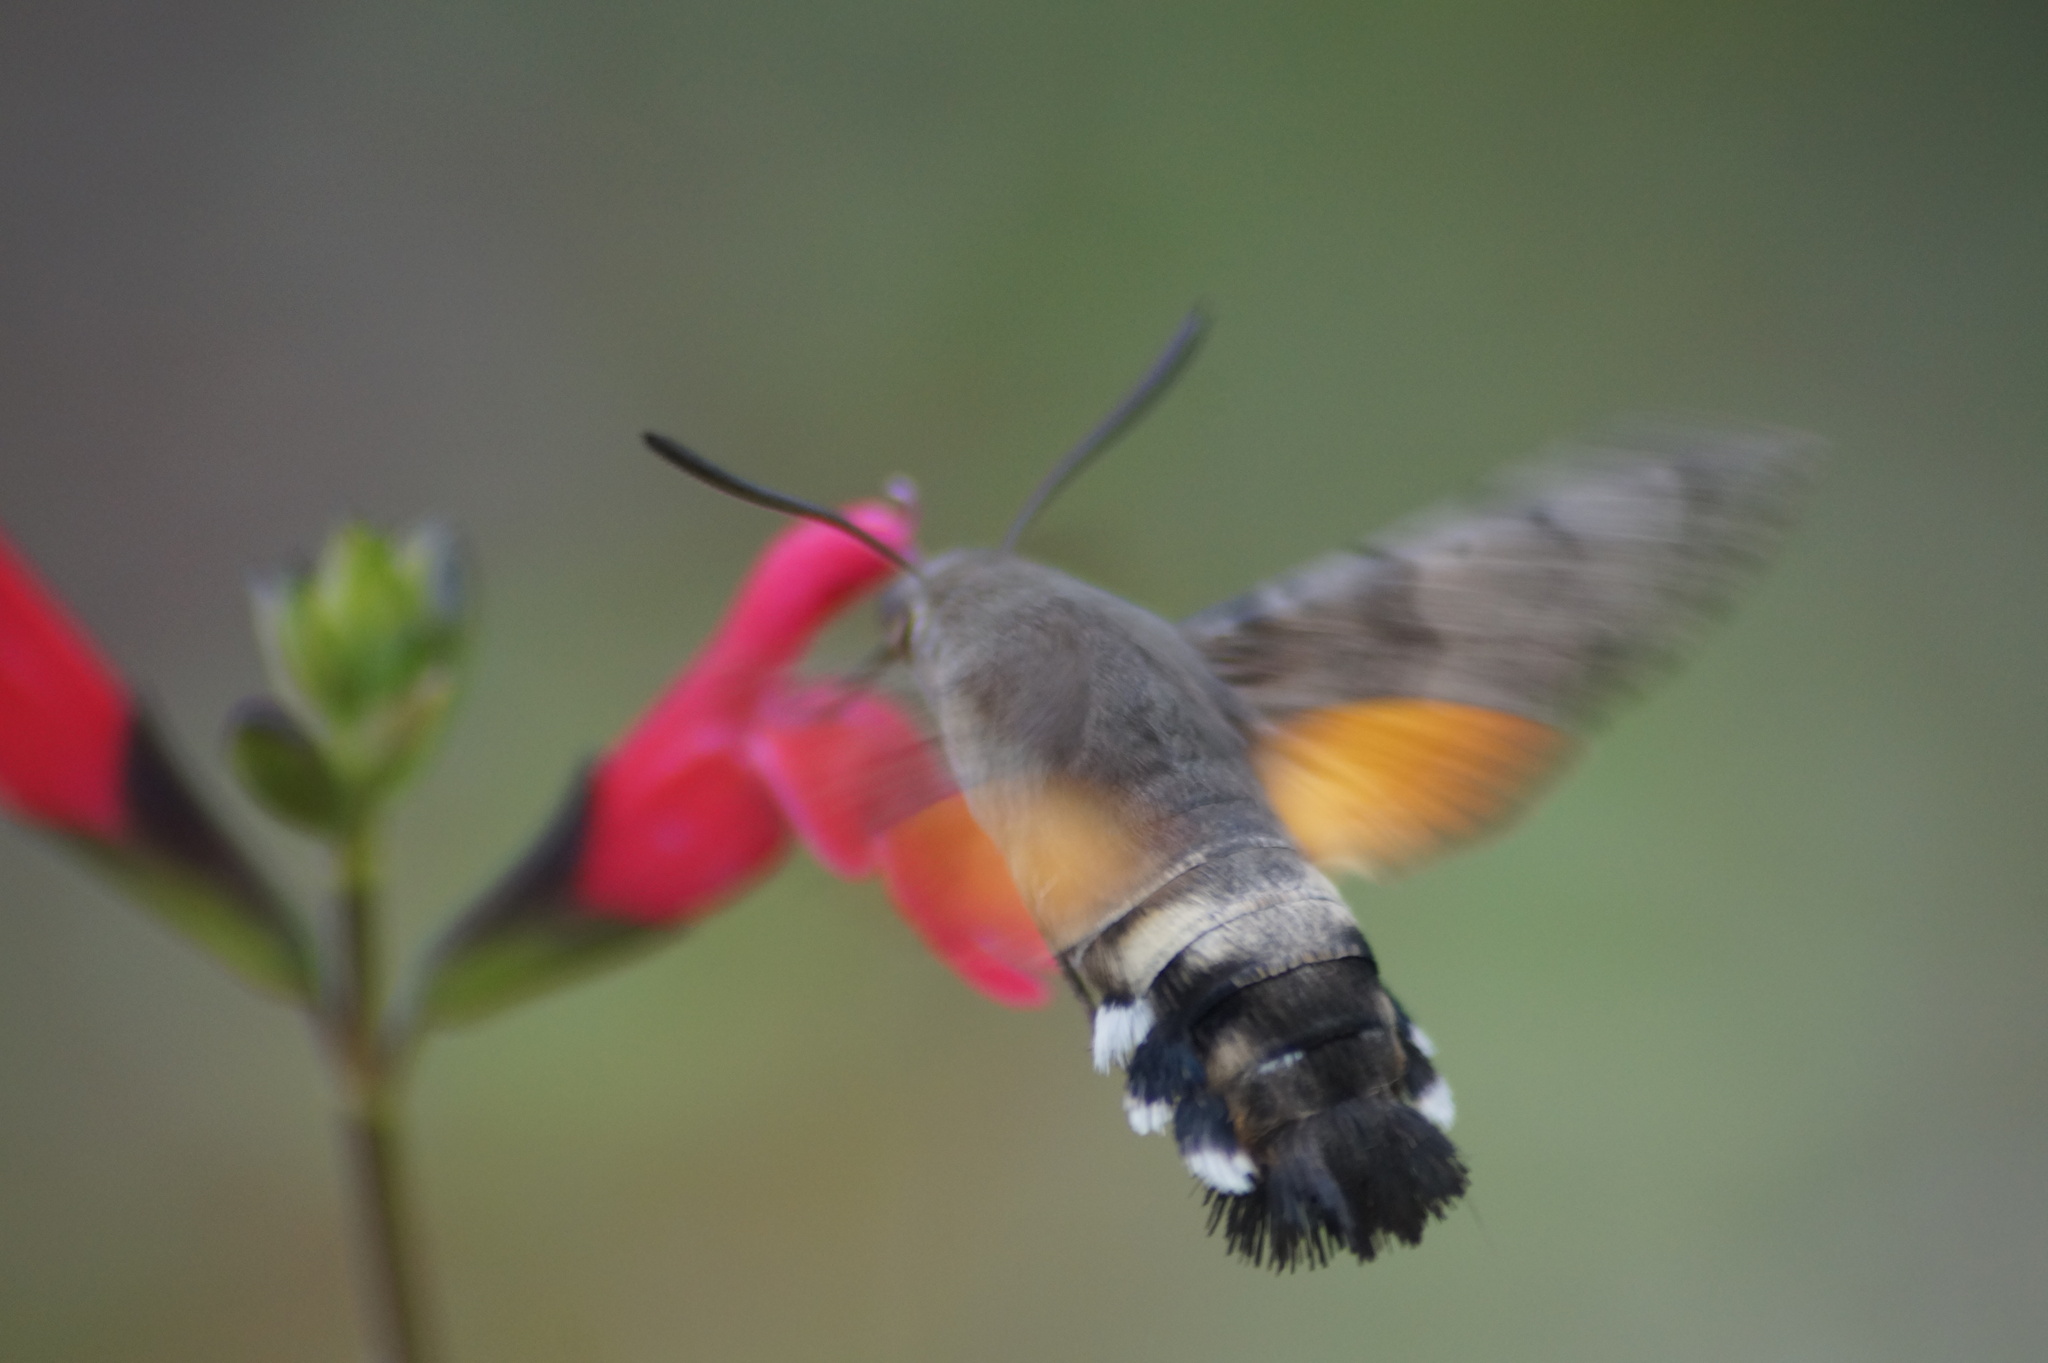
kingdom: Animalia
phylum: Arthropoda
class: Insecta
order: Lepidoptera
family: Sphingidae
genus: Macroglossum
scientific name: Macroglossum stellatarum
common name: Humming-bird hawk-moth
